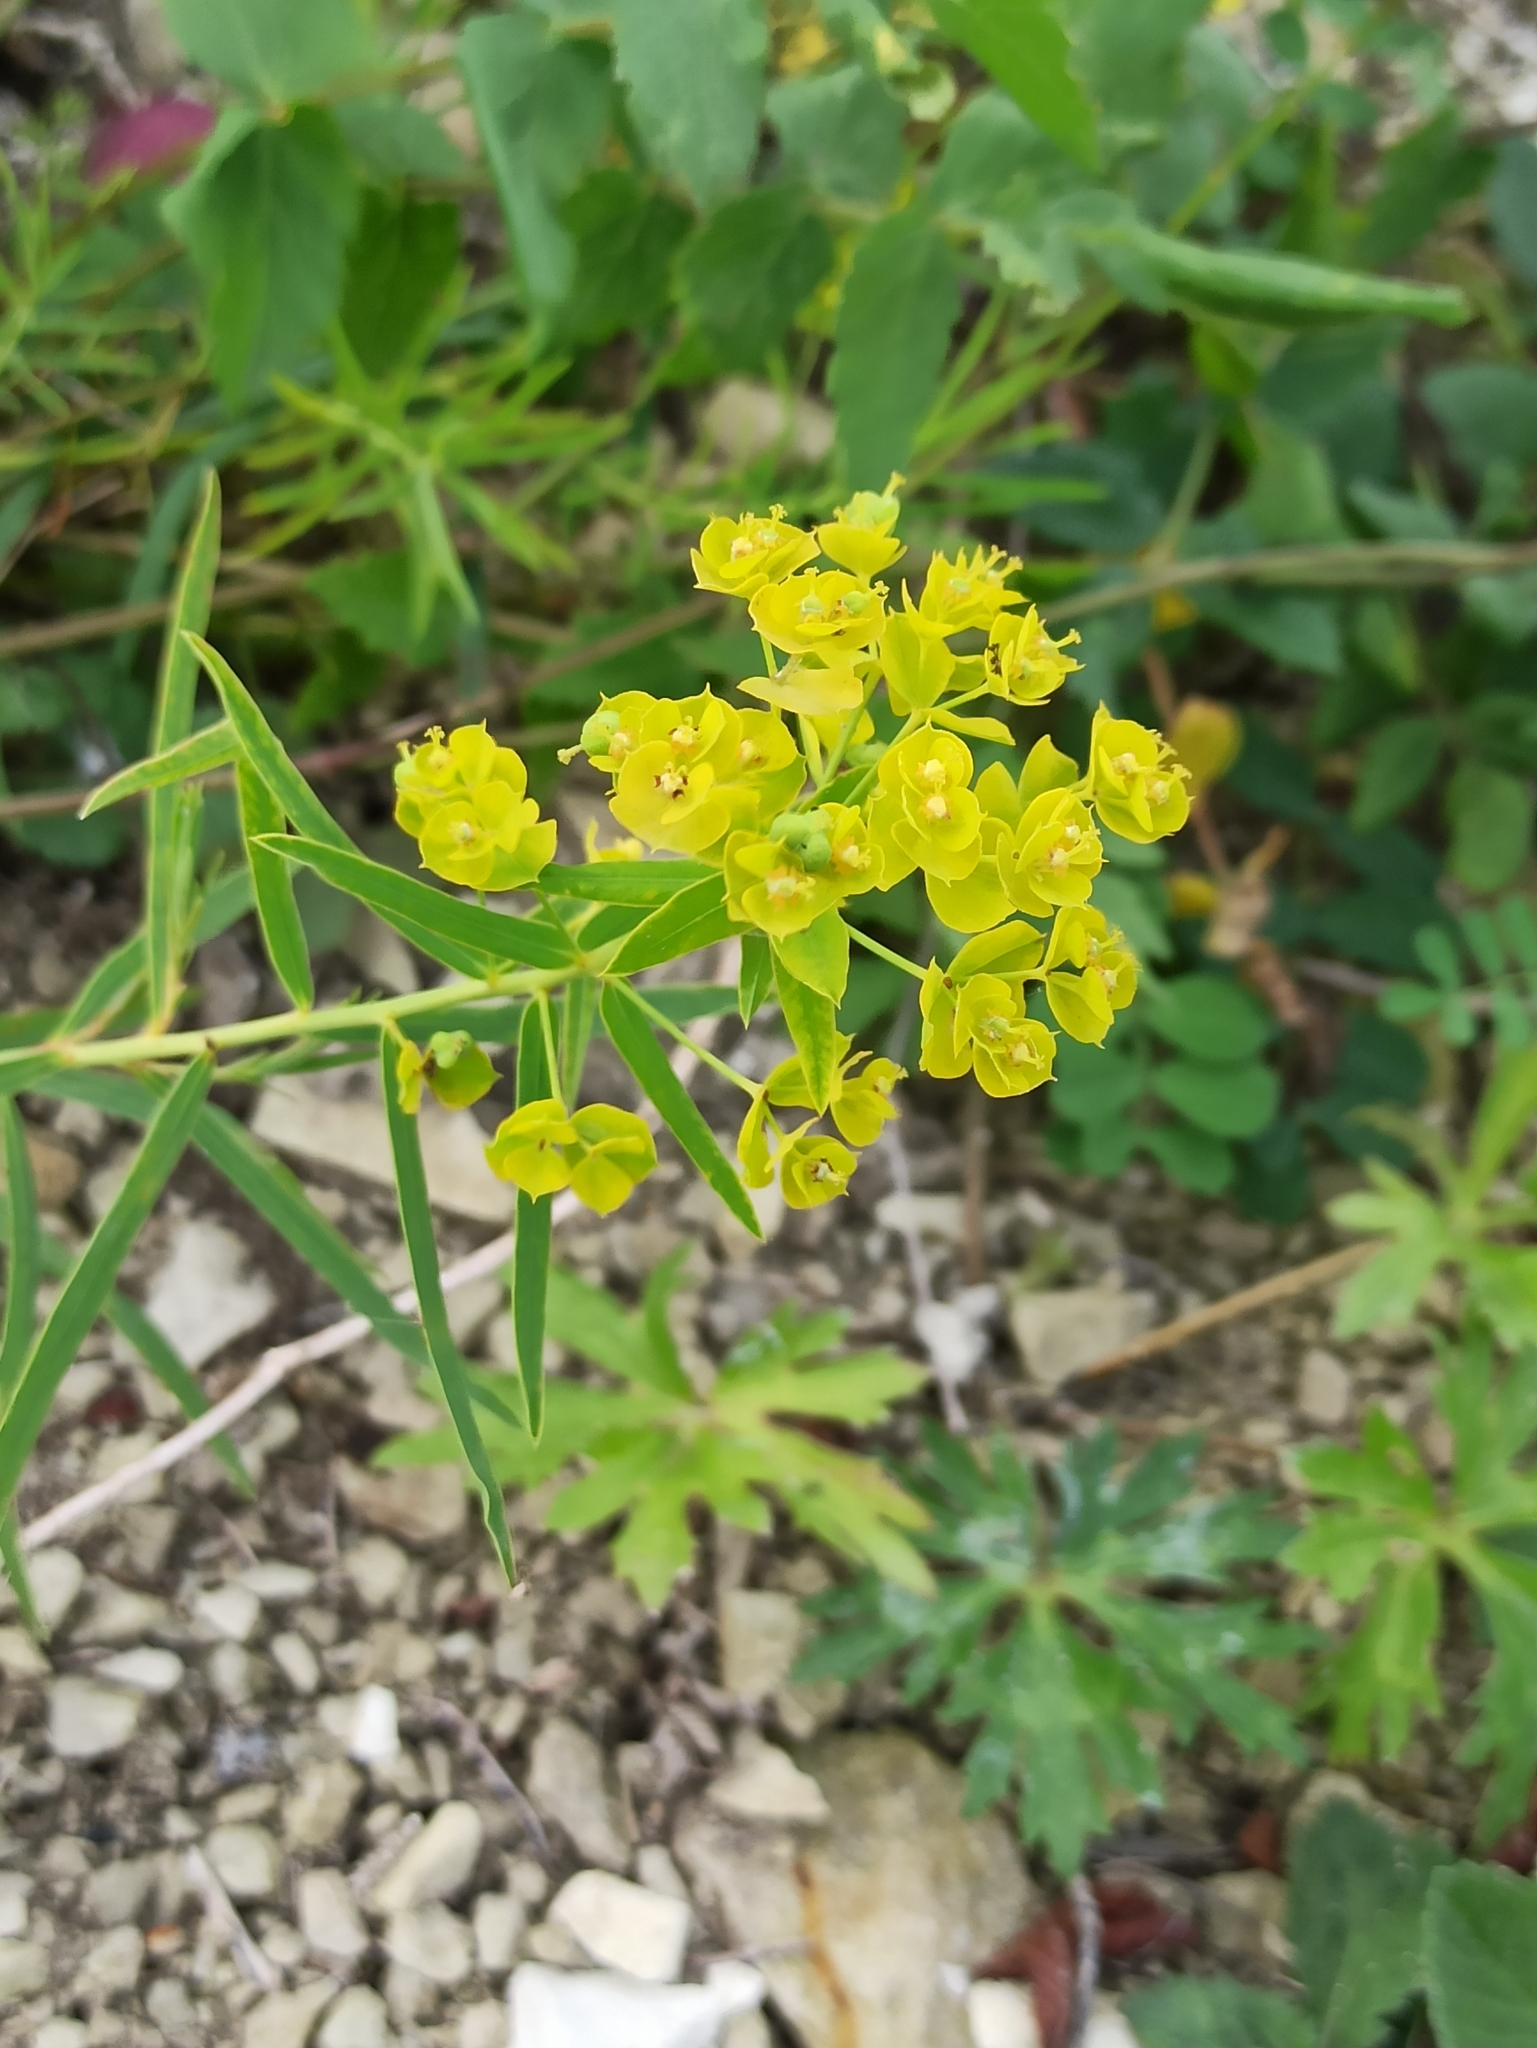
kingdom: Plantae
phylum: Tracheophyta
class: Magnoliopsida
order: Malpighiales
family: Euphorbiaceae
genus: Euphorbia
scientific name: Euphorbia virgata
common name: Leafy spurge
